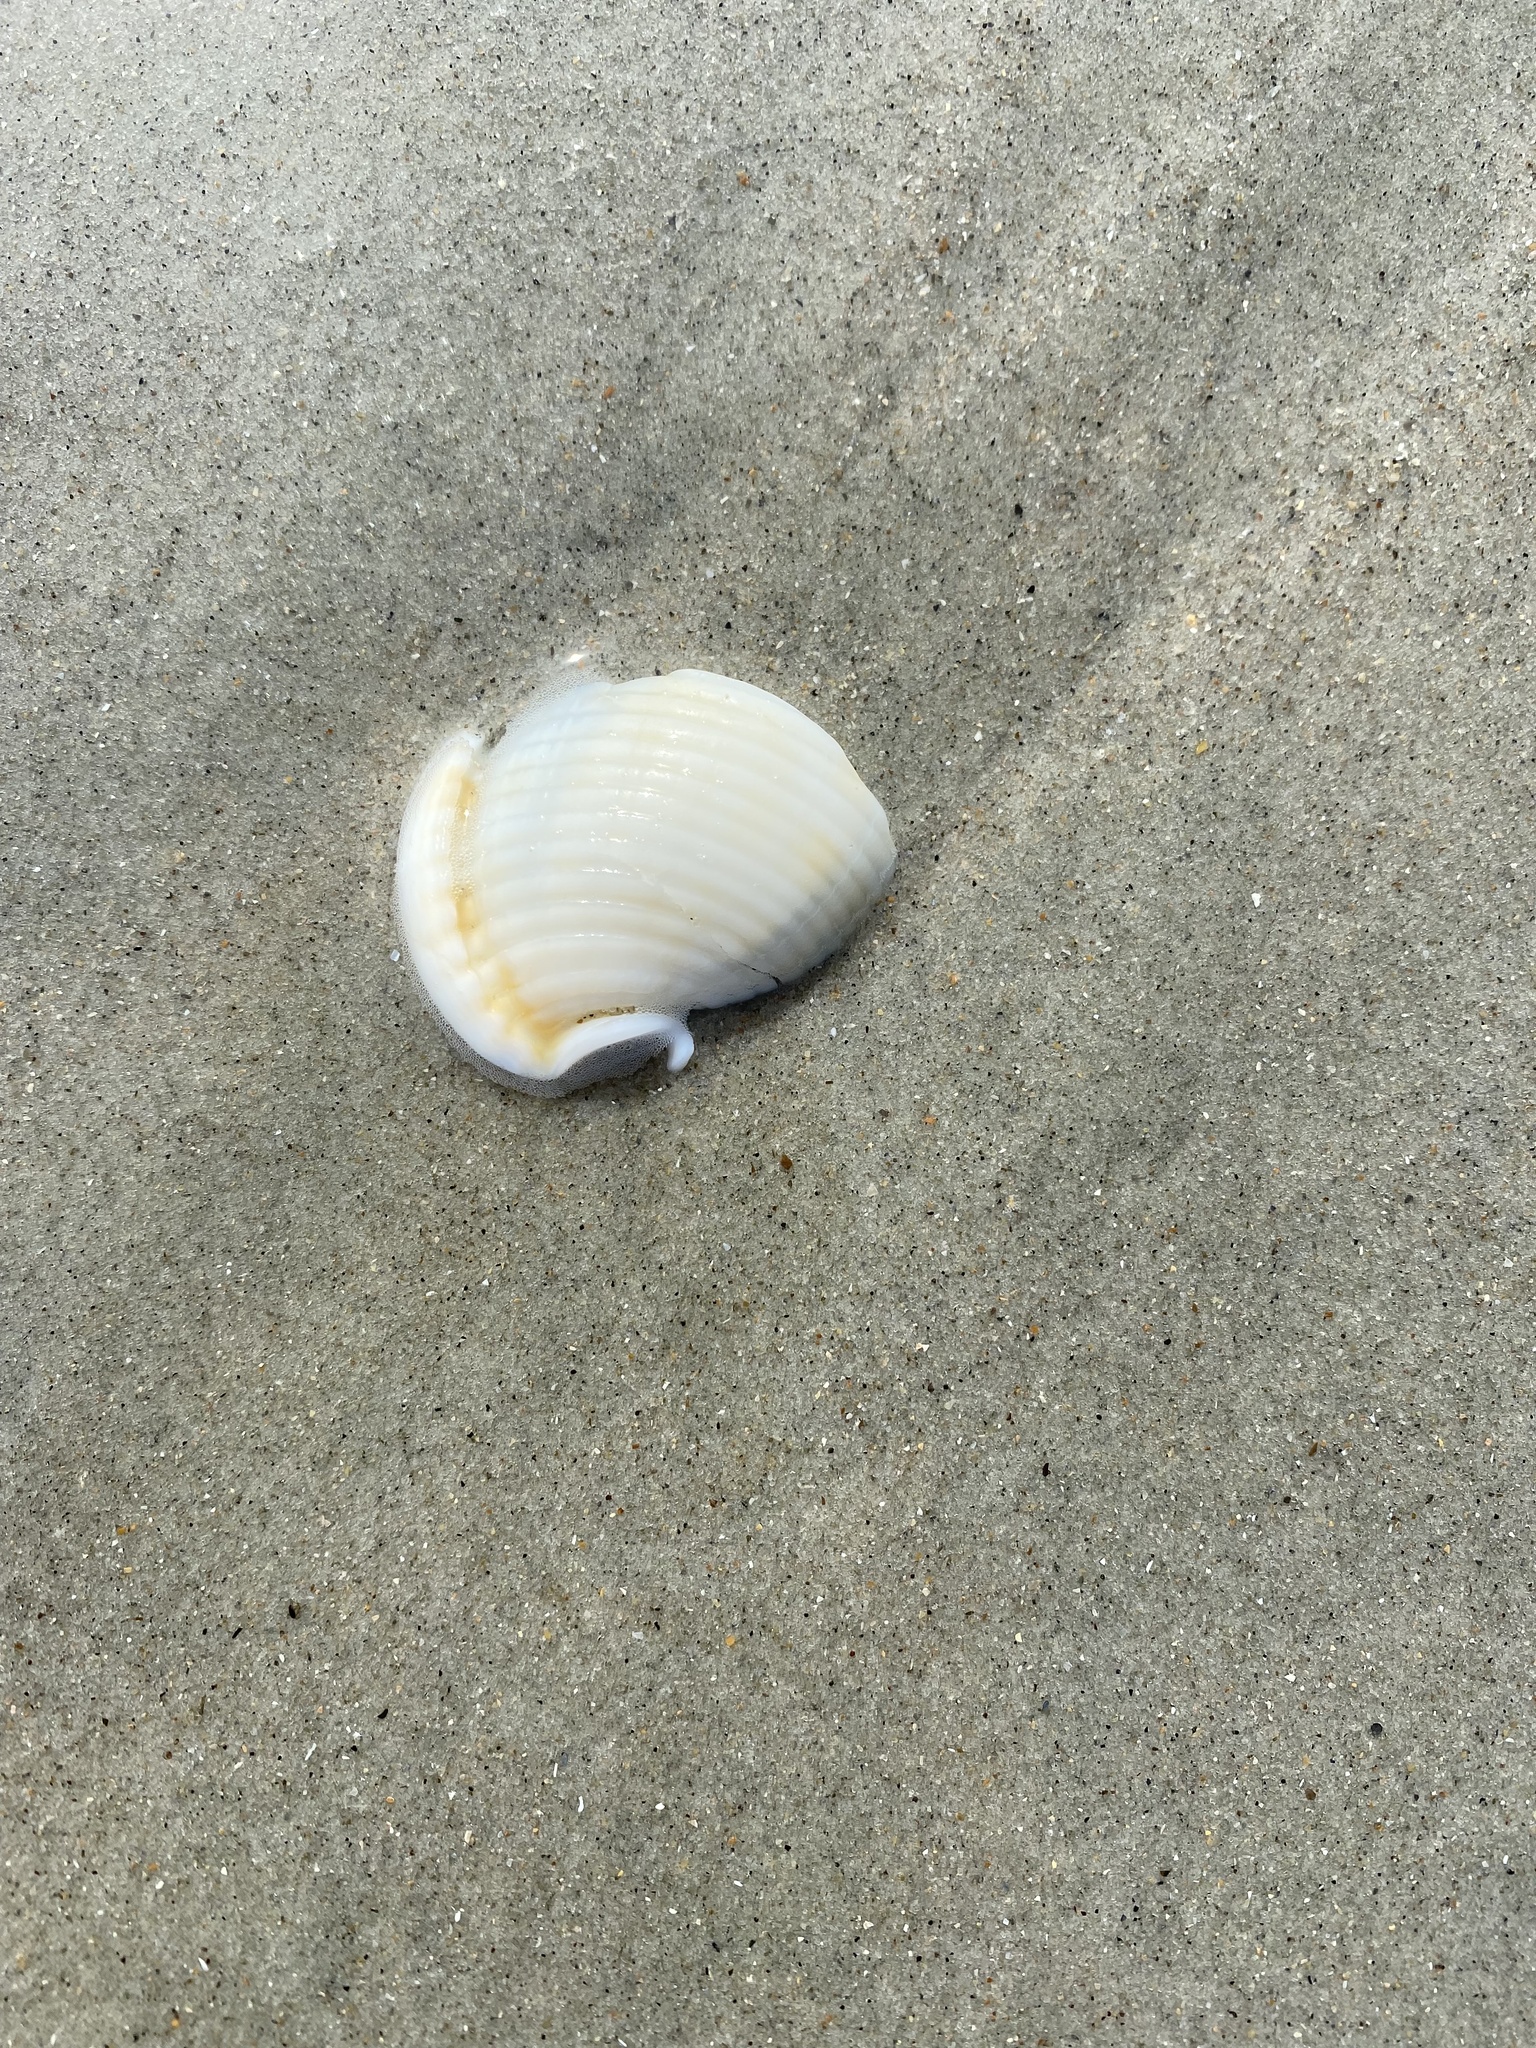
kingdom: Animalia
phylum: Mollusca
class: Gastropoda
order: Littorinimorpha
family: Cassidae
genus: Semicassis
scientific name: Semicassis granulata
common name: Scotch bonnet
